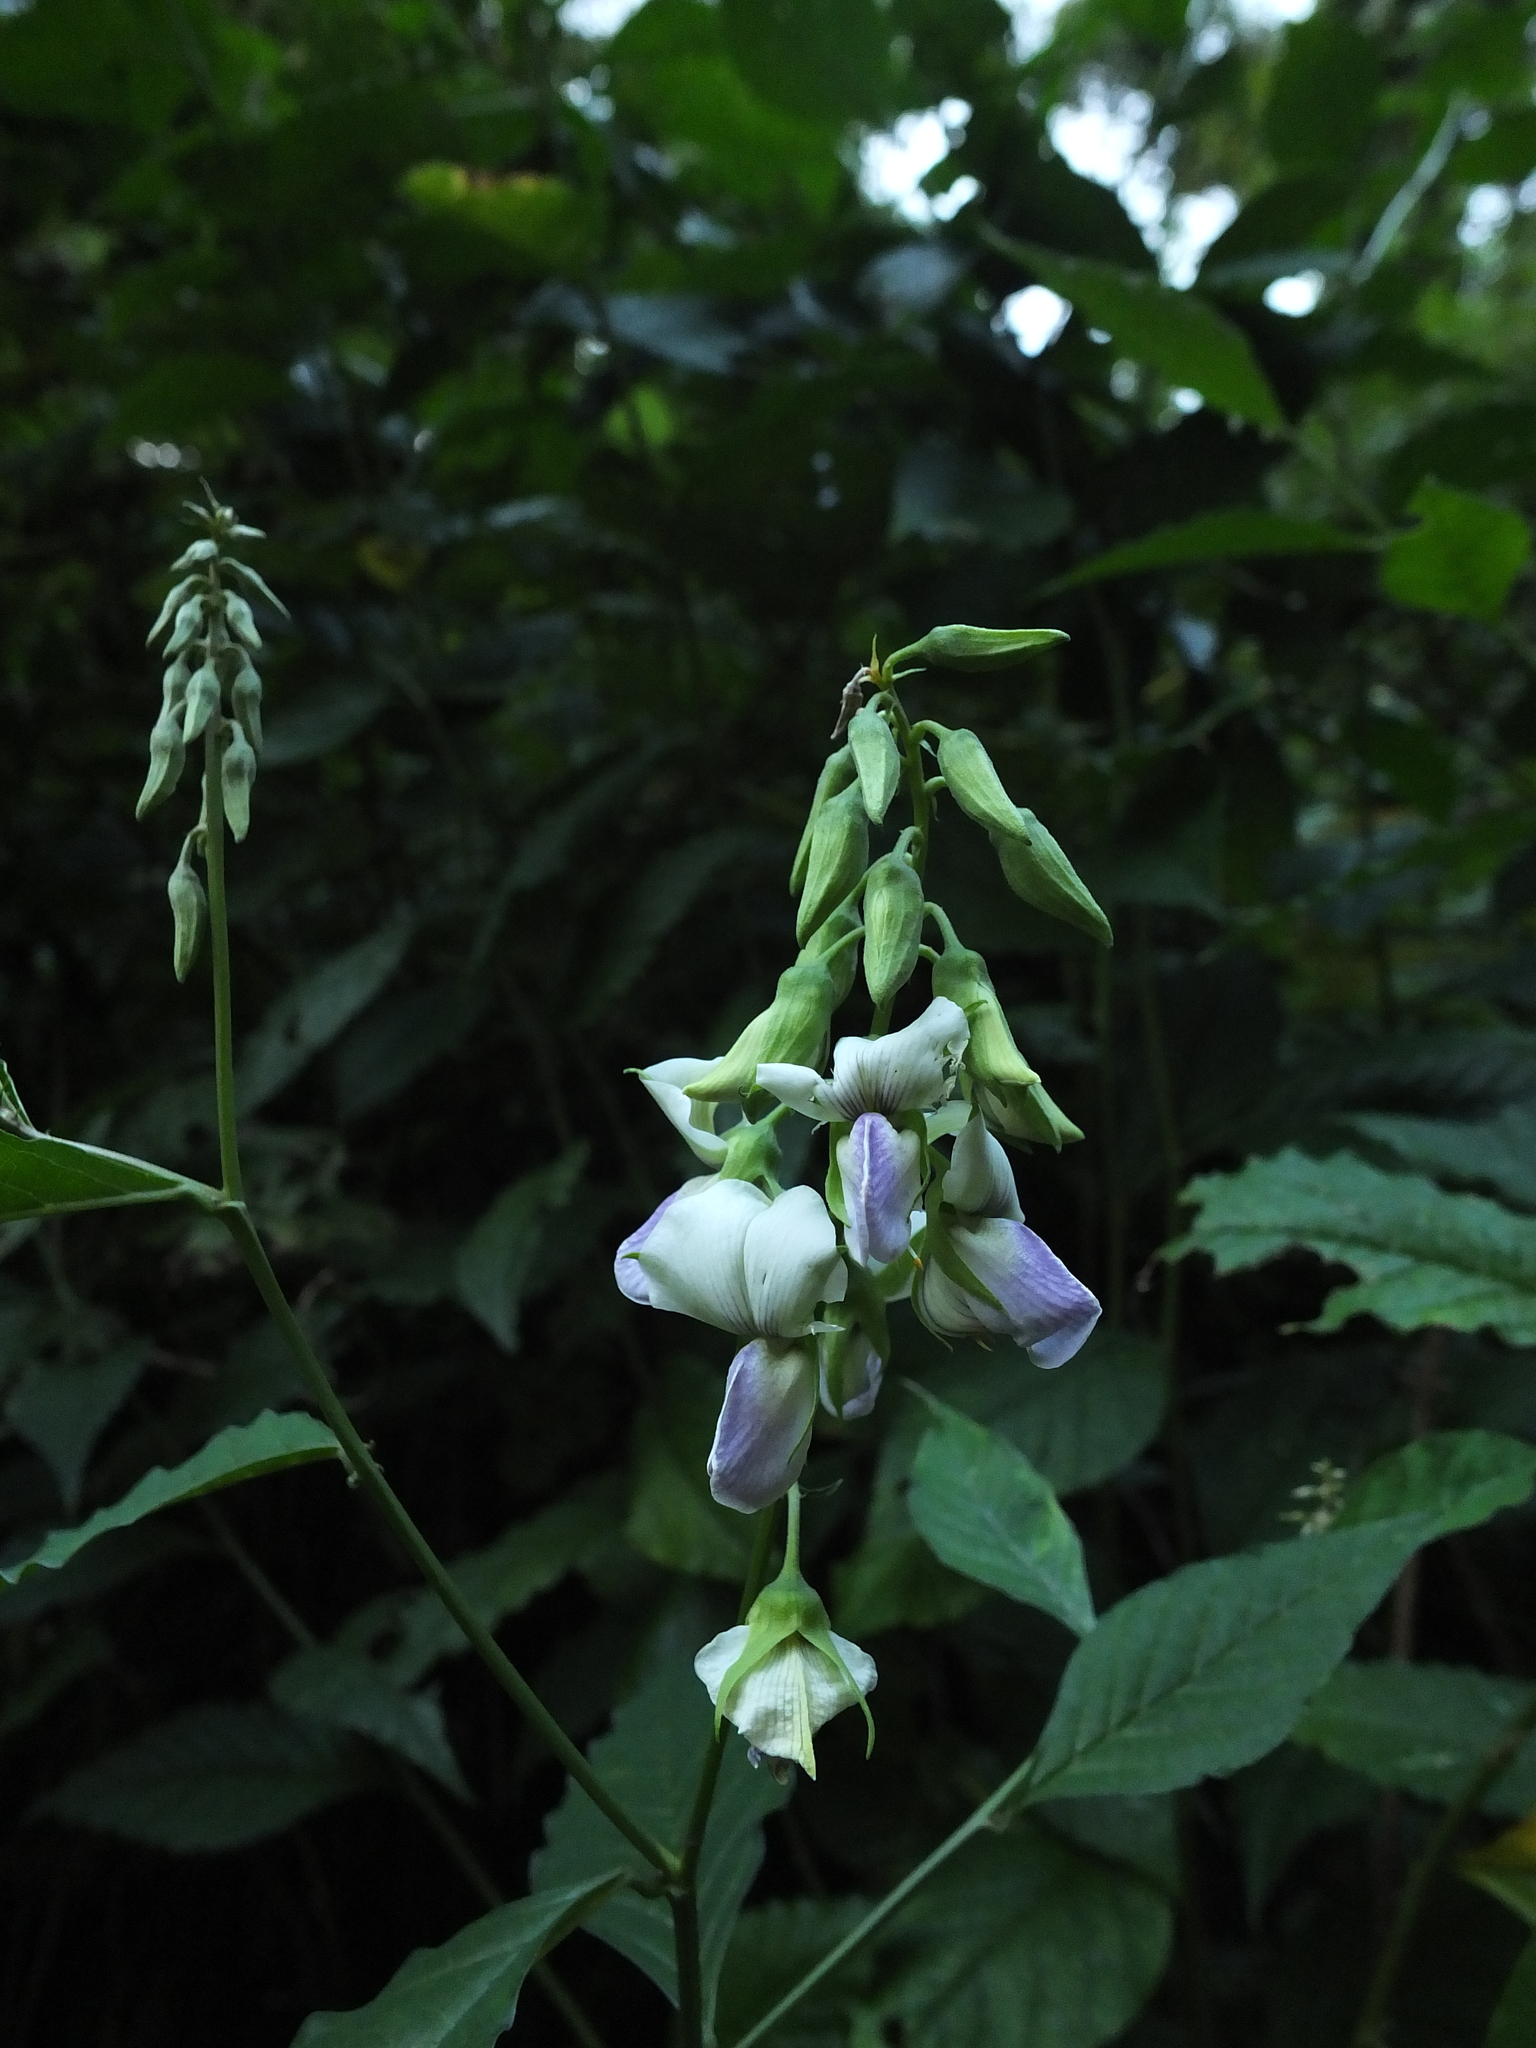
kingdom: Plantae
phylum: Tracheophyta
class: Magnoliopsida
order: Fabales
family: Fabaceae
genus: Crotalaria
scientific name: Crotalaria heyneana
